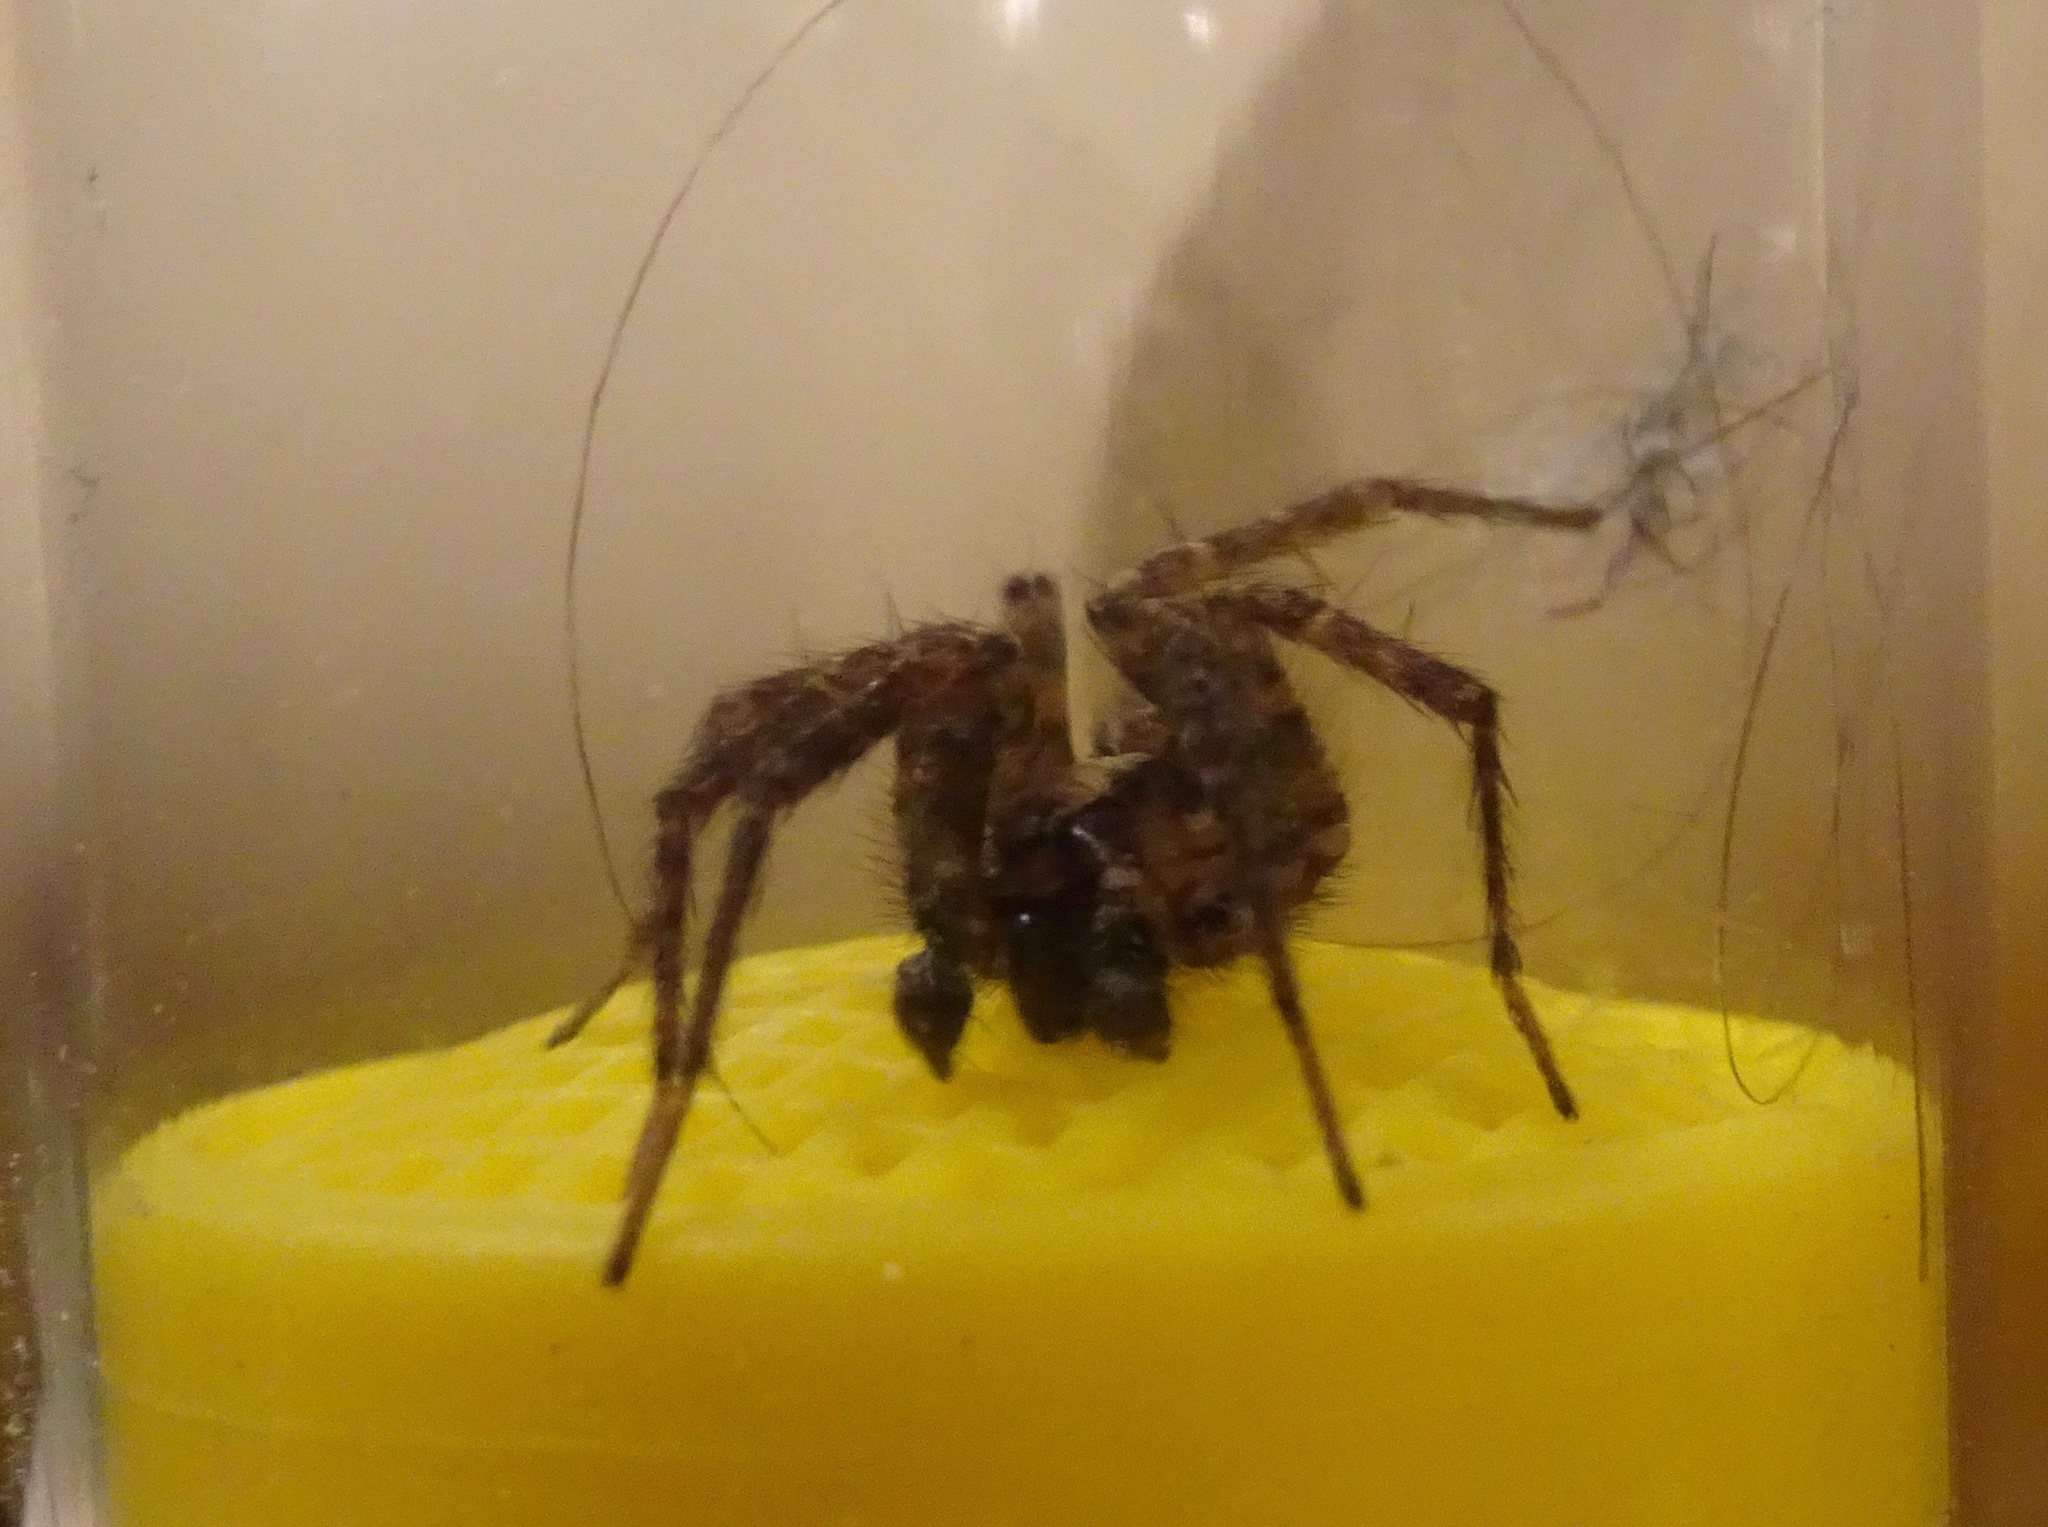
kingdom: Animalia
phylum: Arthropoda
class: Arachnida
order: Araneae
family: Agelenidae
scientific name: Agelenidae
